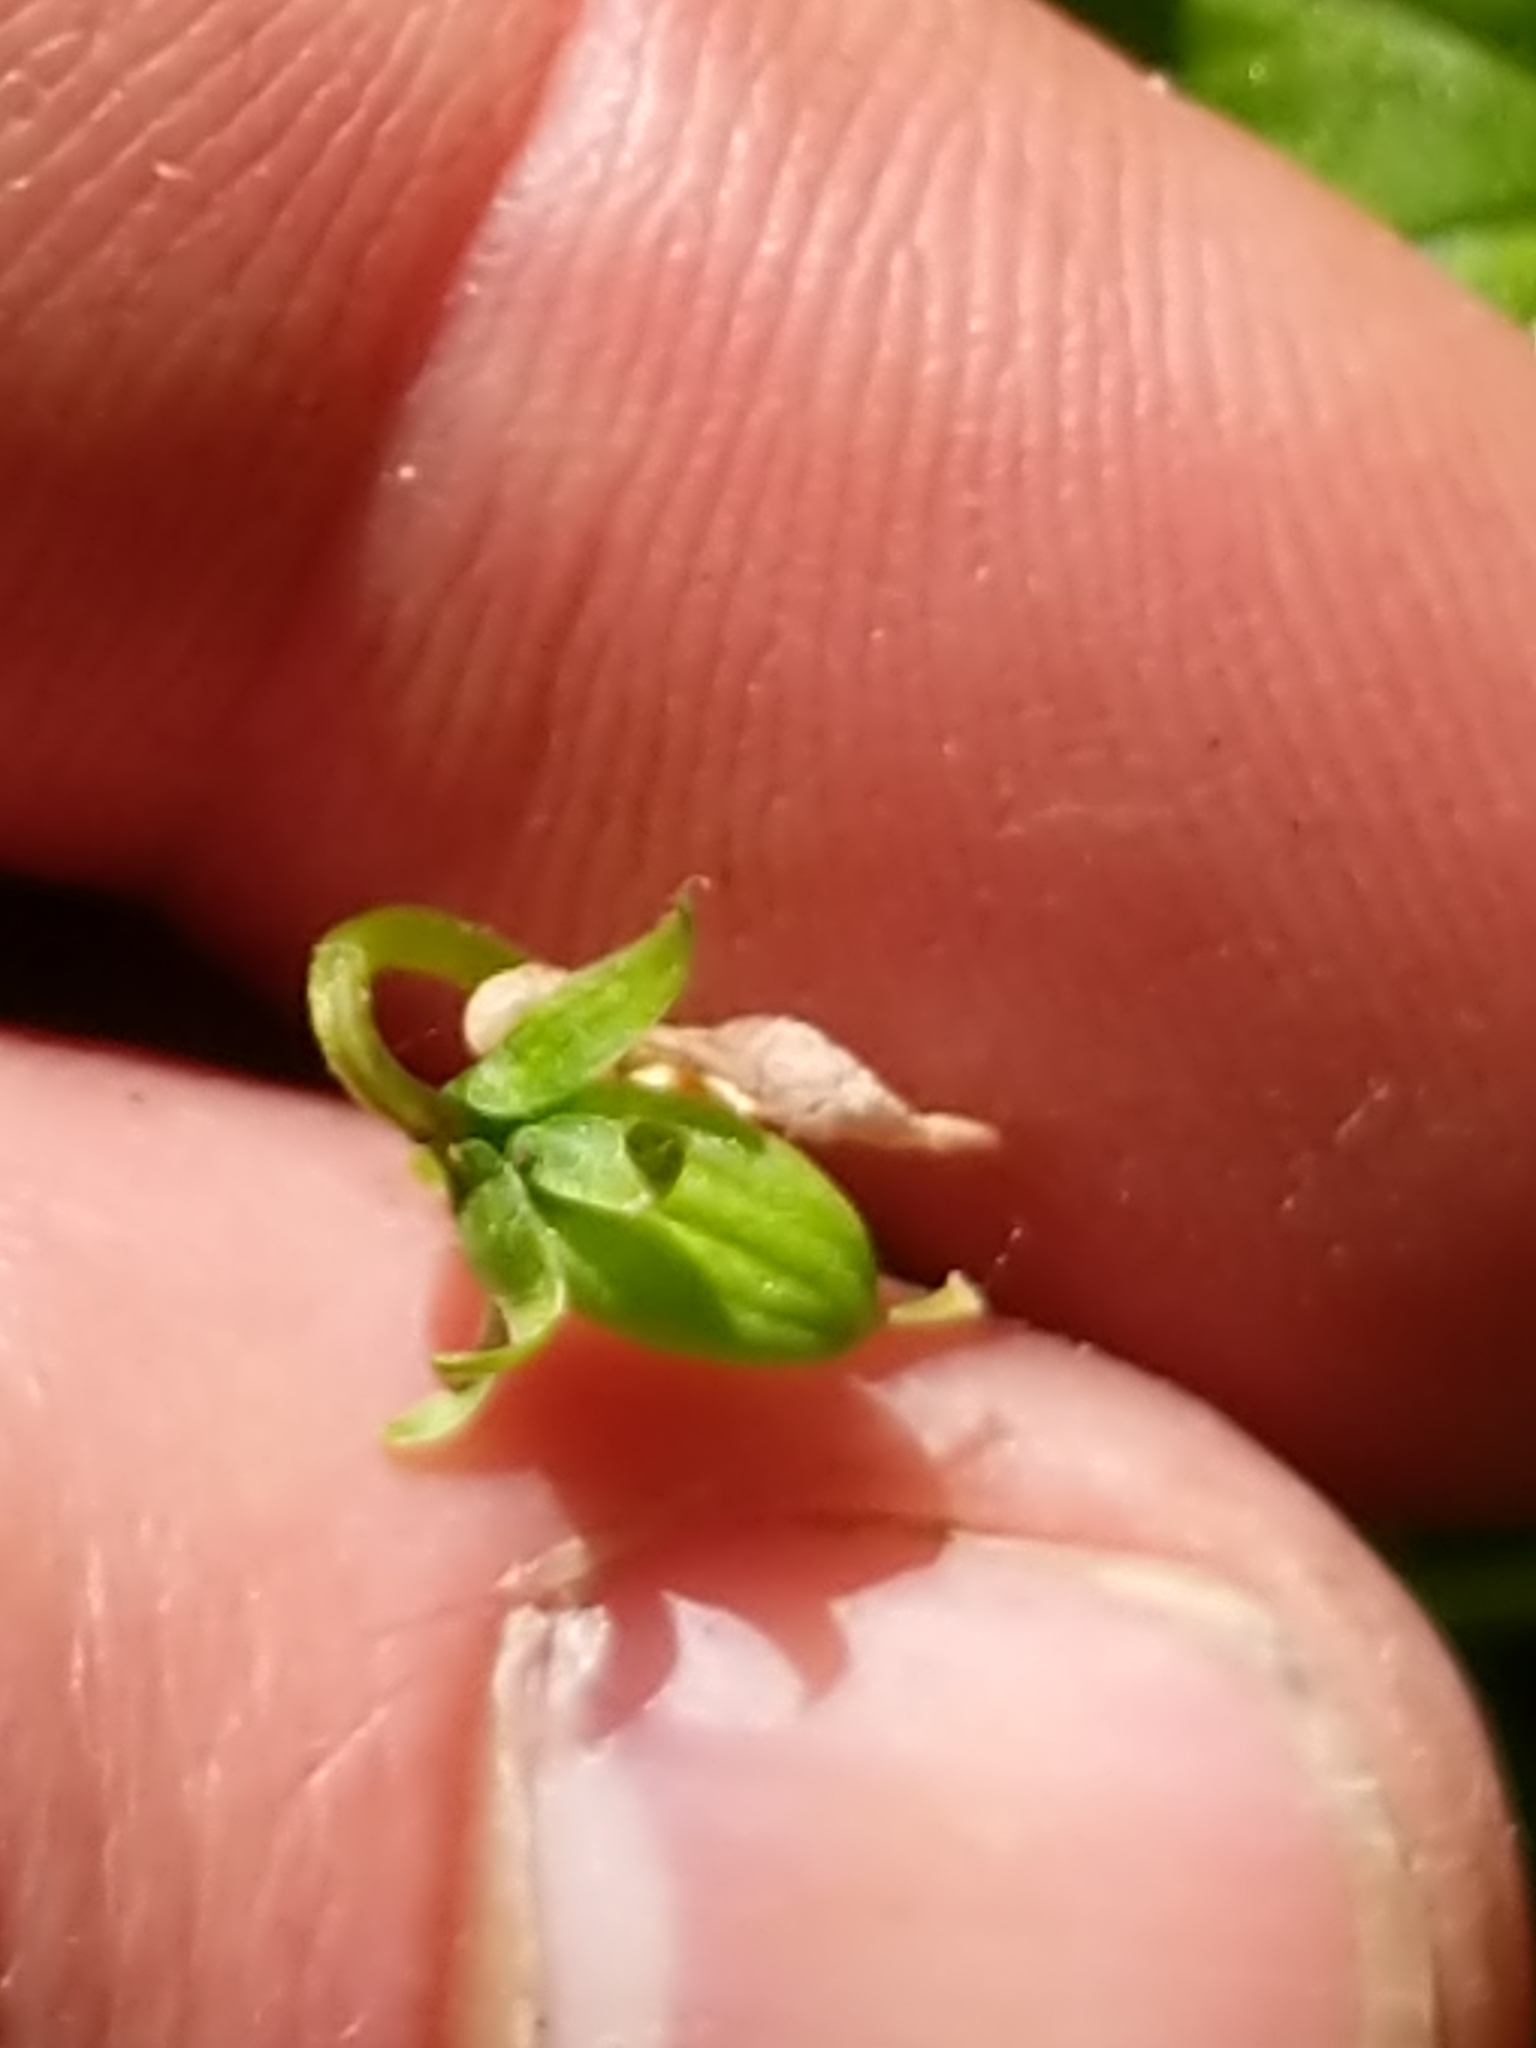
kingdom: Plantae
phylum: Tracheophyta
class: Magnoliopsida
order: Malpighiales
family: Violaceae
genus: Viola
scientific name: Viola minuscula
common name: Northern white violet
